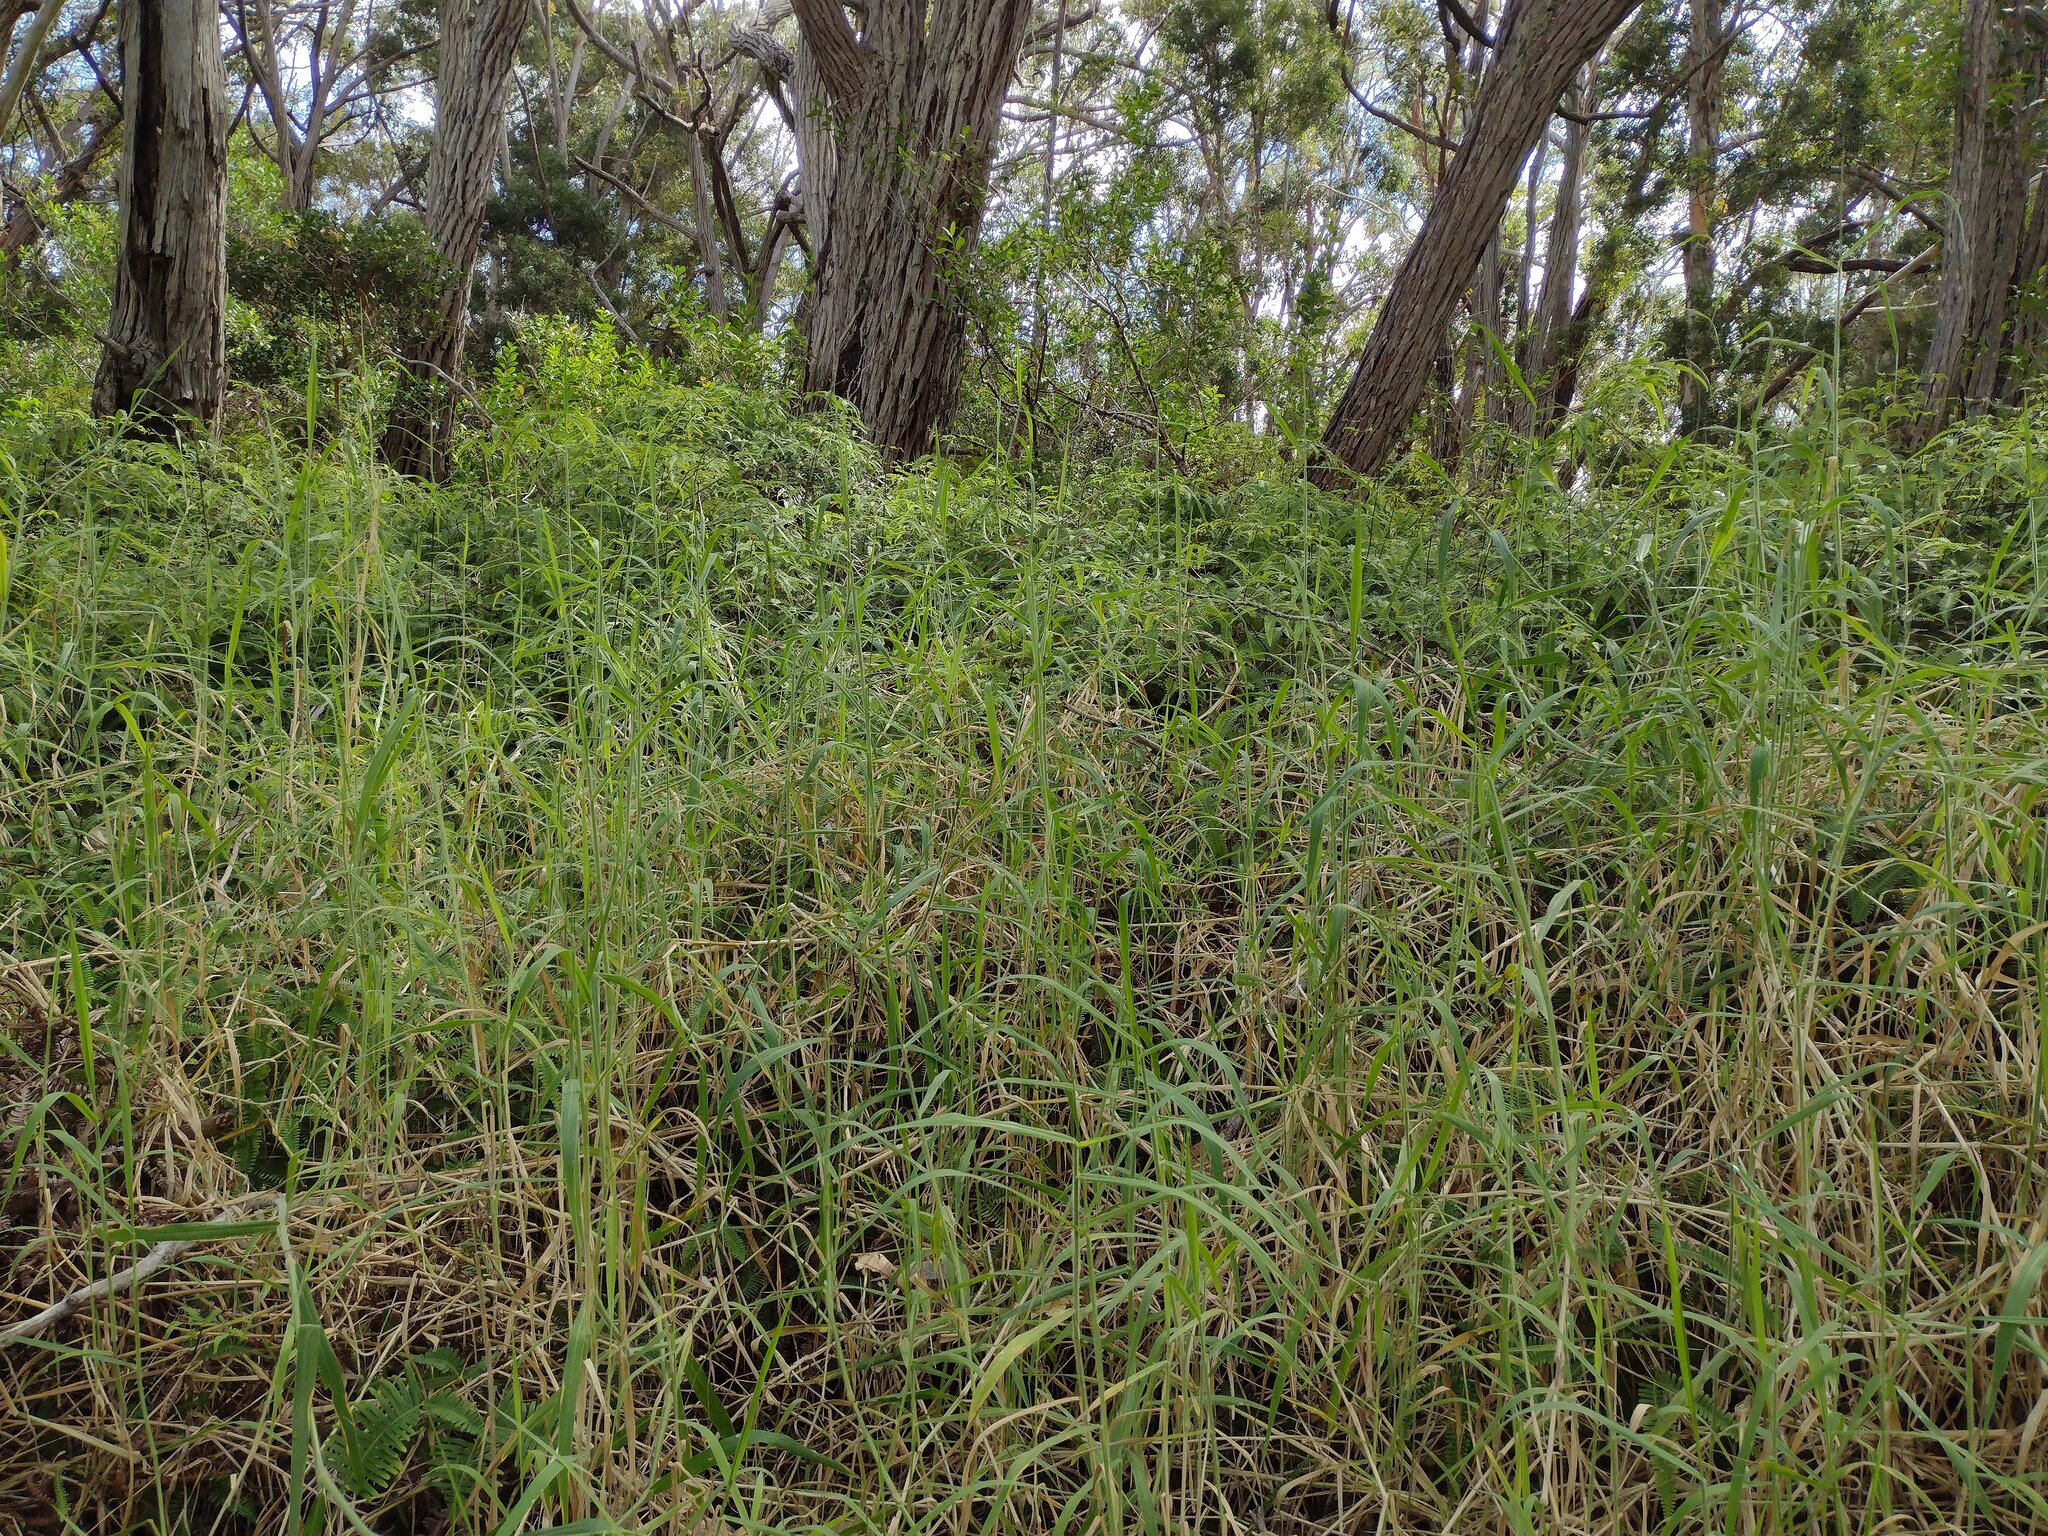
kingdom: Plantae
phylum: Tracheophyta
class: Liliopsida
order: Poales
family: Poaceae
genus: Urochloa
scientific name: Urochloa mutica
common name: Para grass
